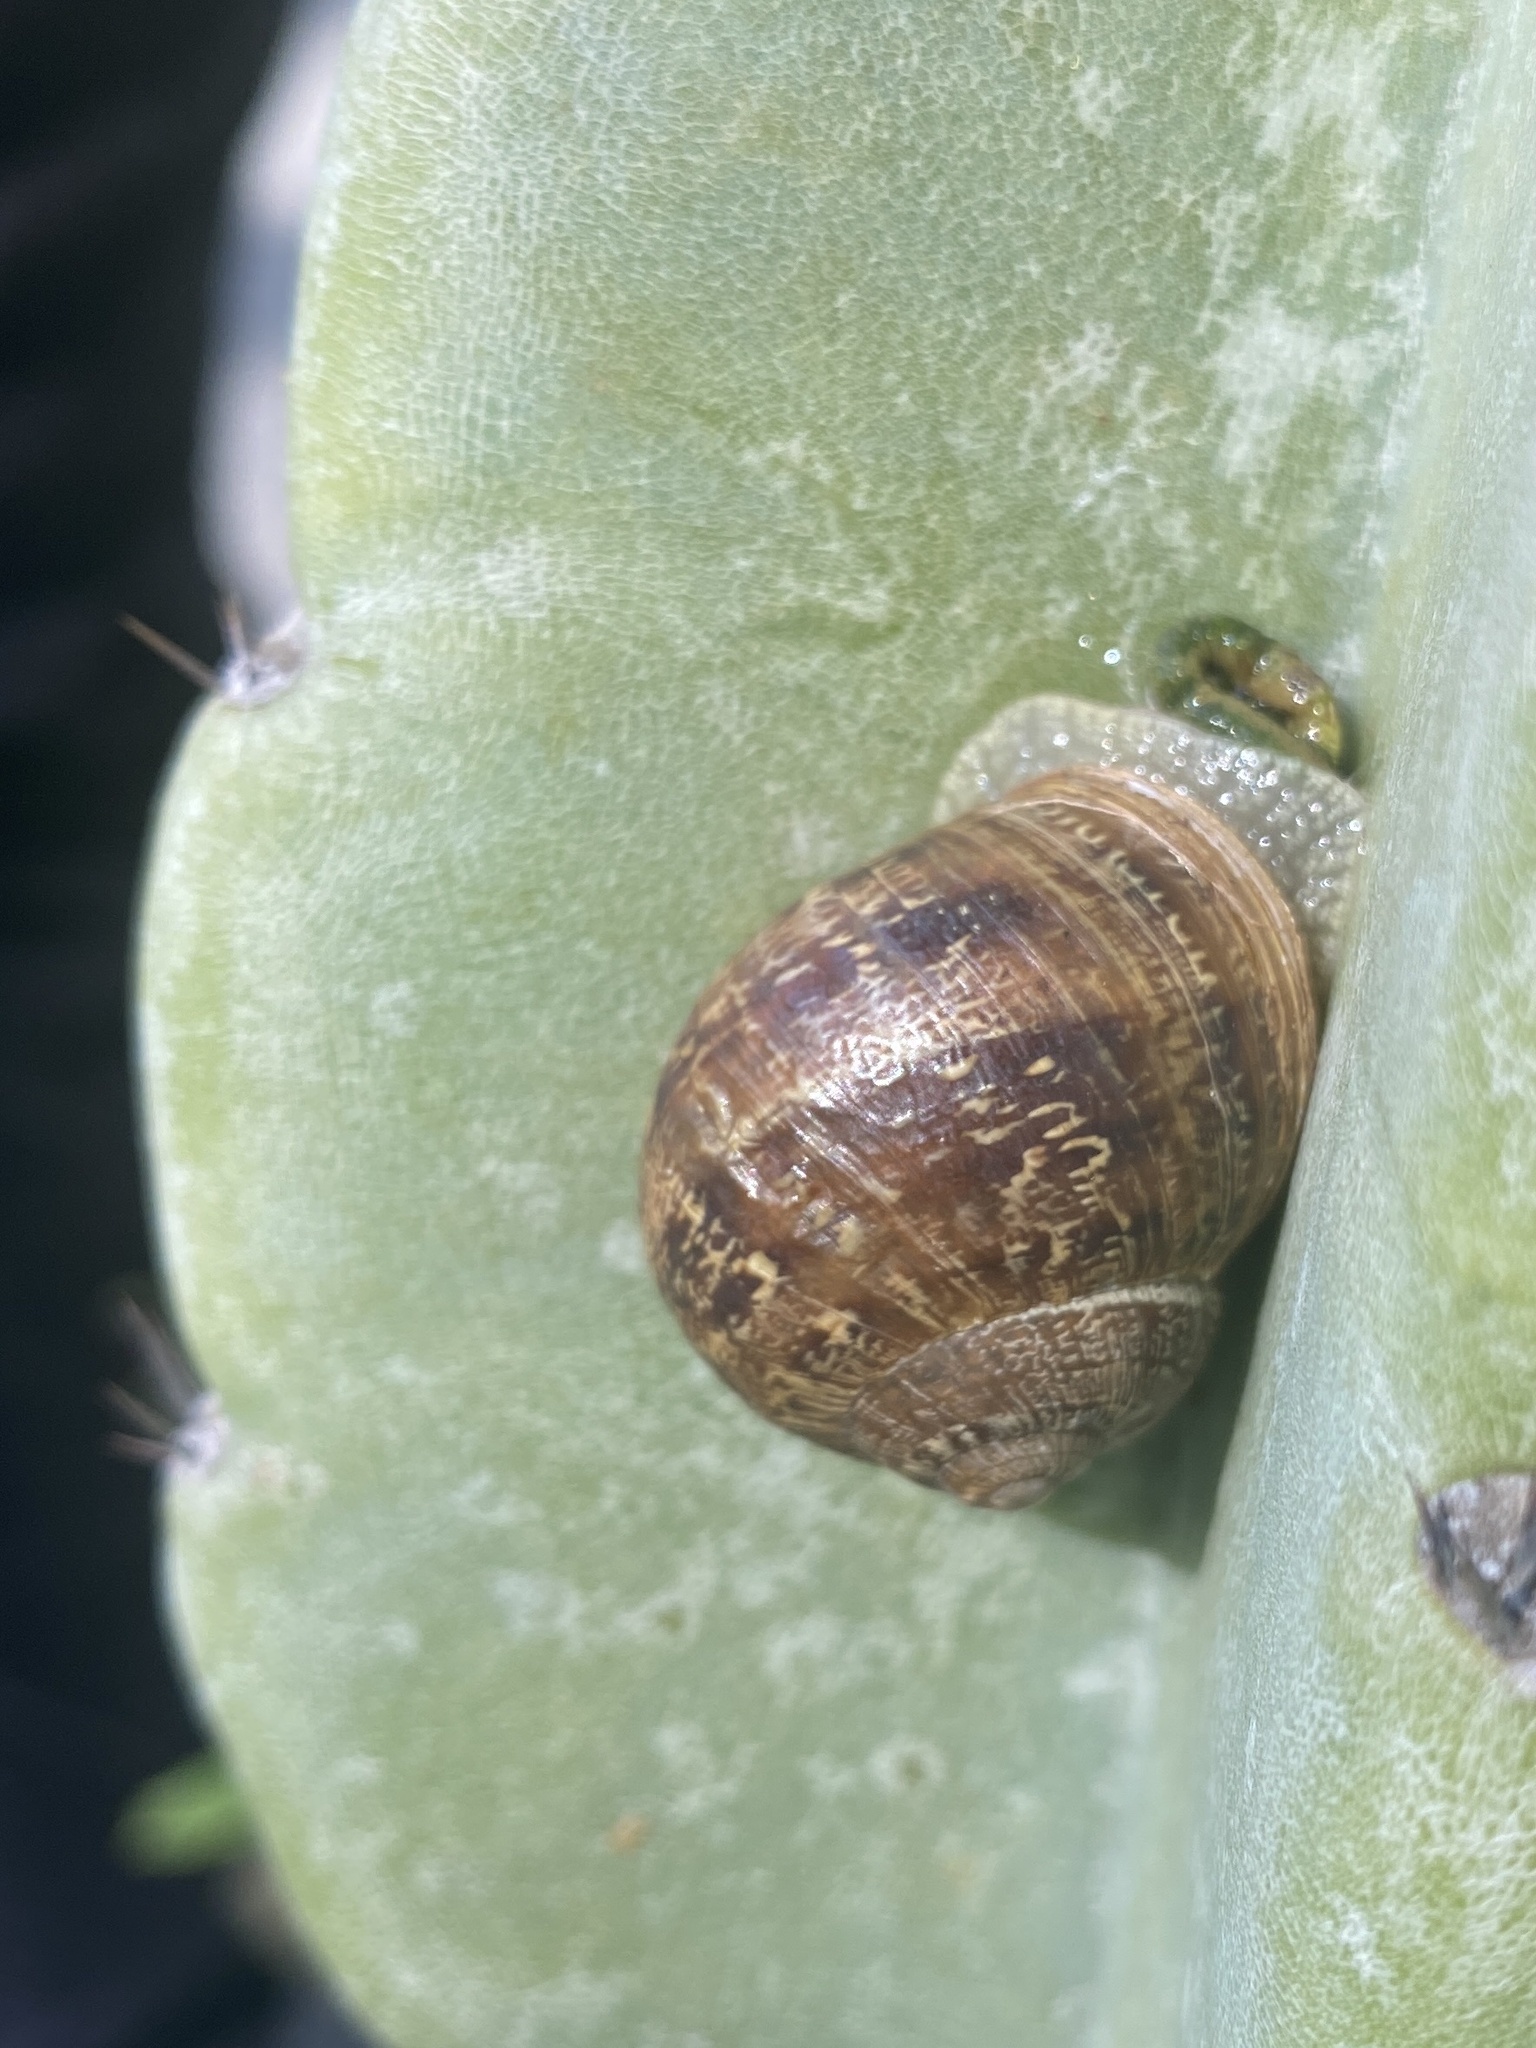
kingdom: Animalia
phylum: Mollusca
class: Gastropoda
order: Stylommatophora
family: Helicidae
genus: Cornu
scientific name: Cornu aspersum
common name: Brown garden snail
